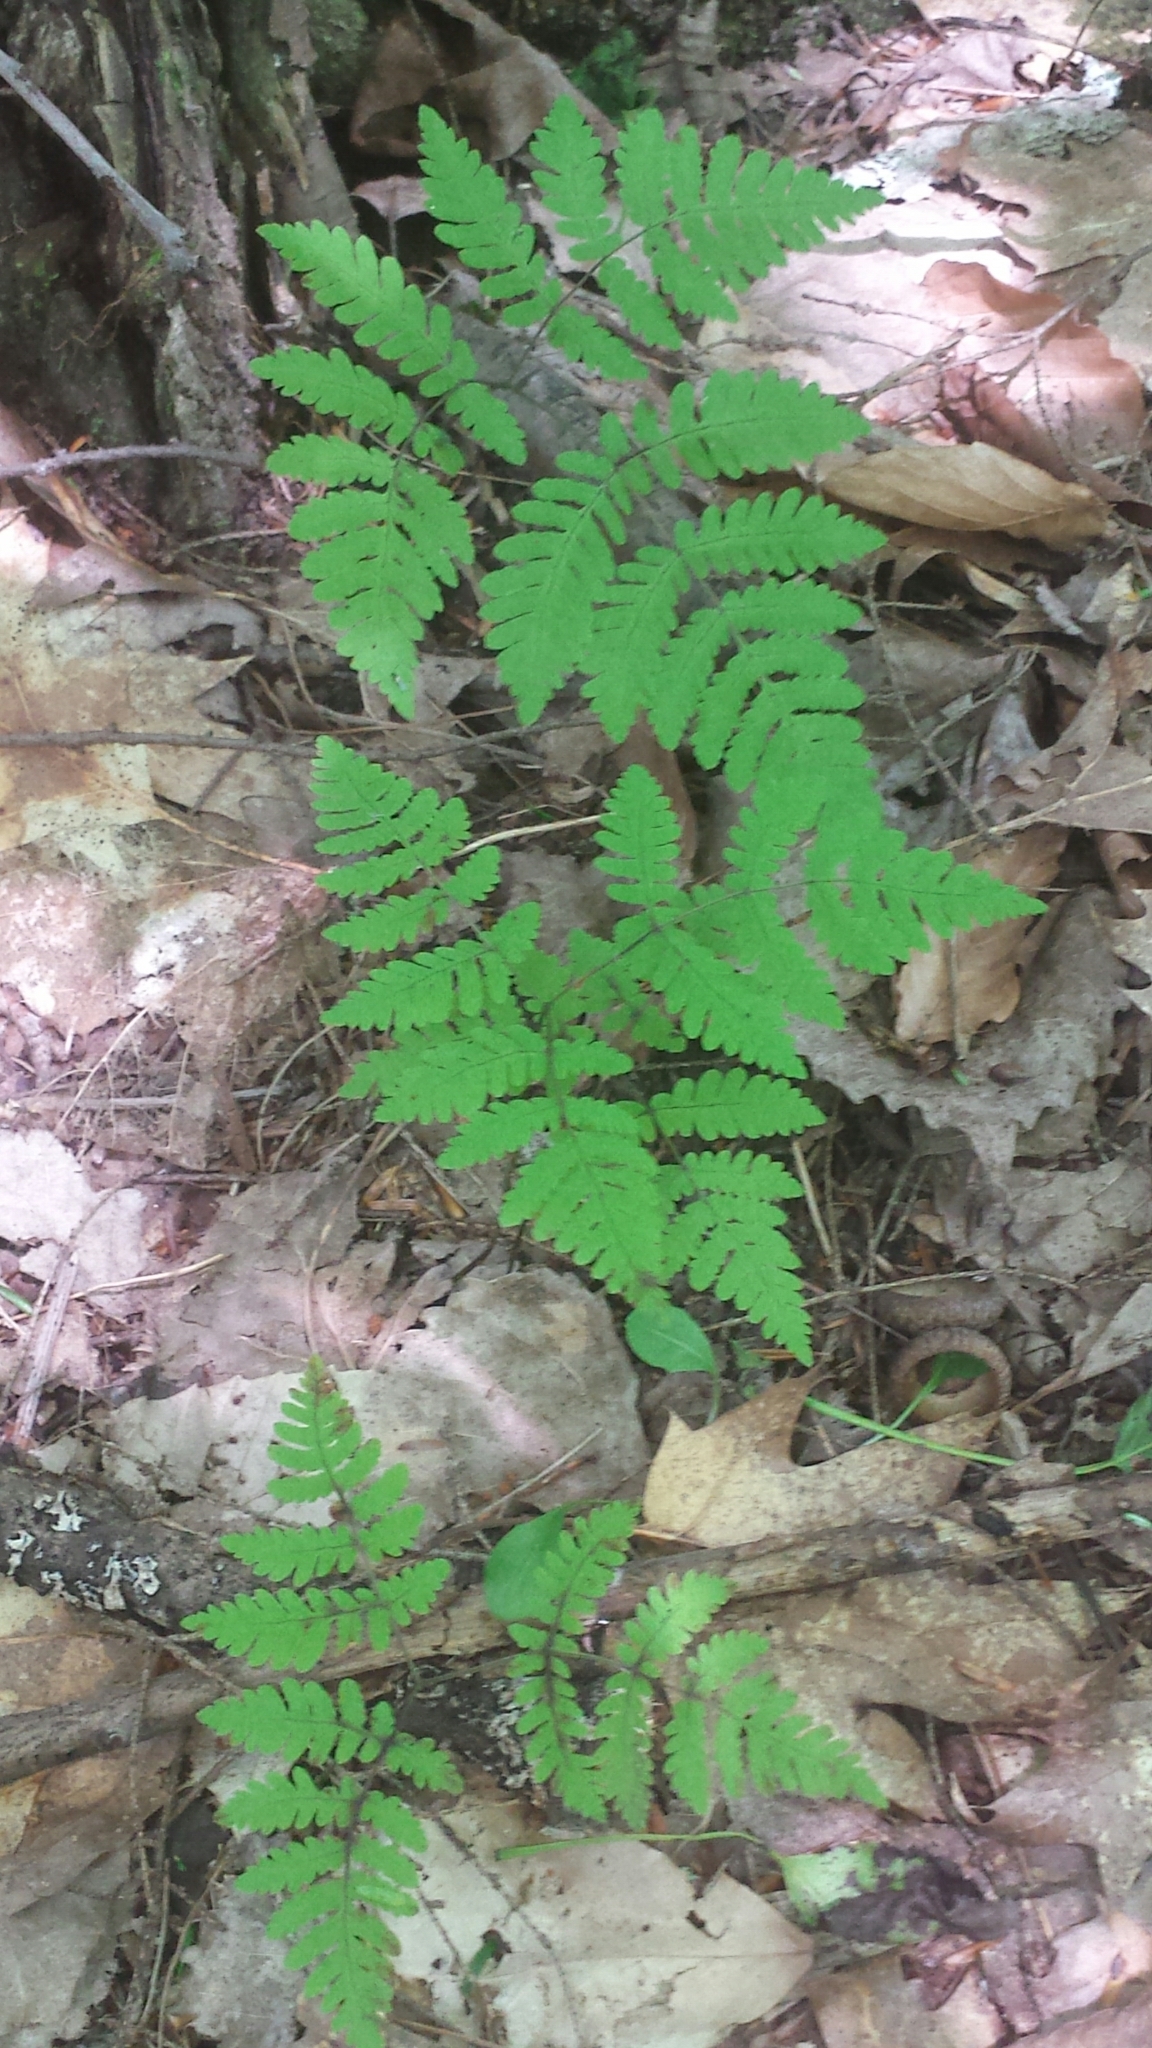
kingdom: Plantae
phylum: Tracheophyta
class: Polypodiopsida
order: Polypodiales
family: Cystopteridaceae
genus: Gymnocarpium
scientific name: Gymnocarpium dryopteris
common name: Oak fern
